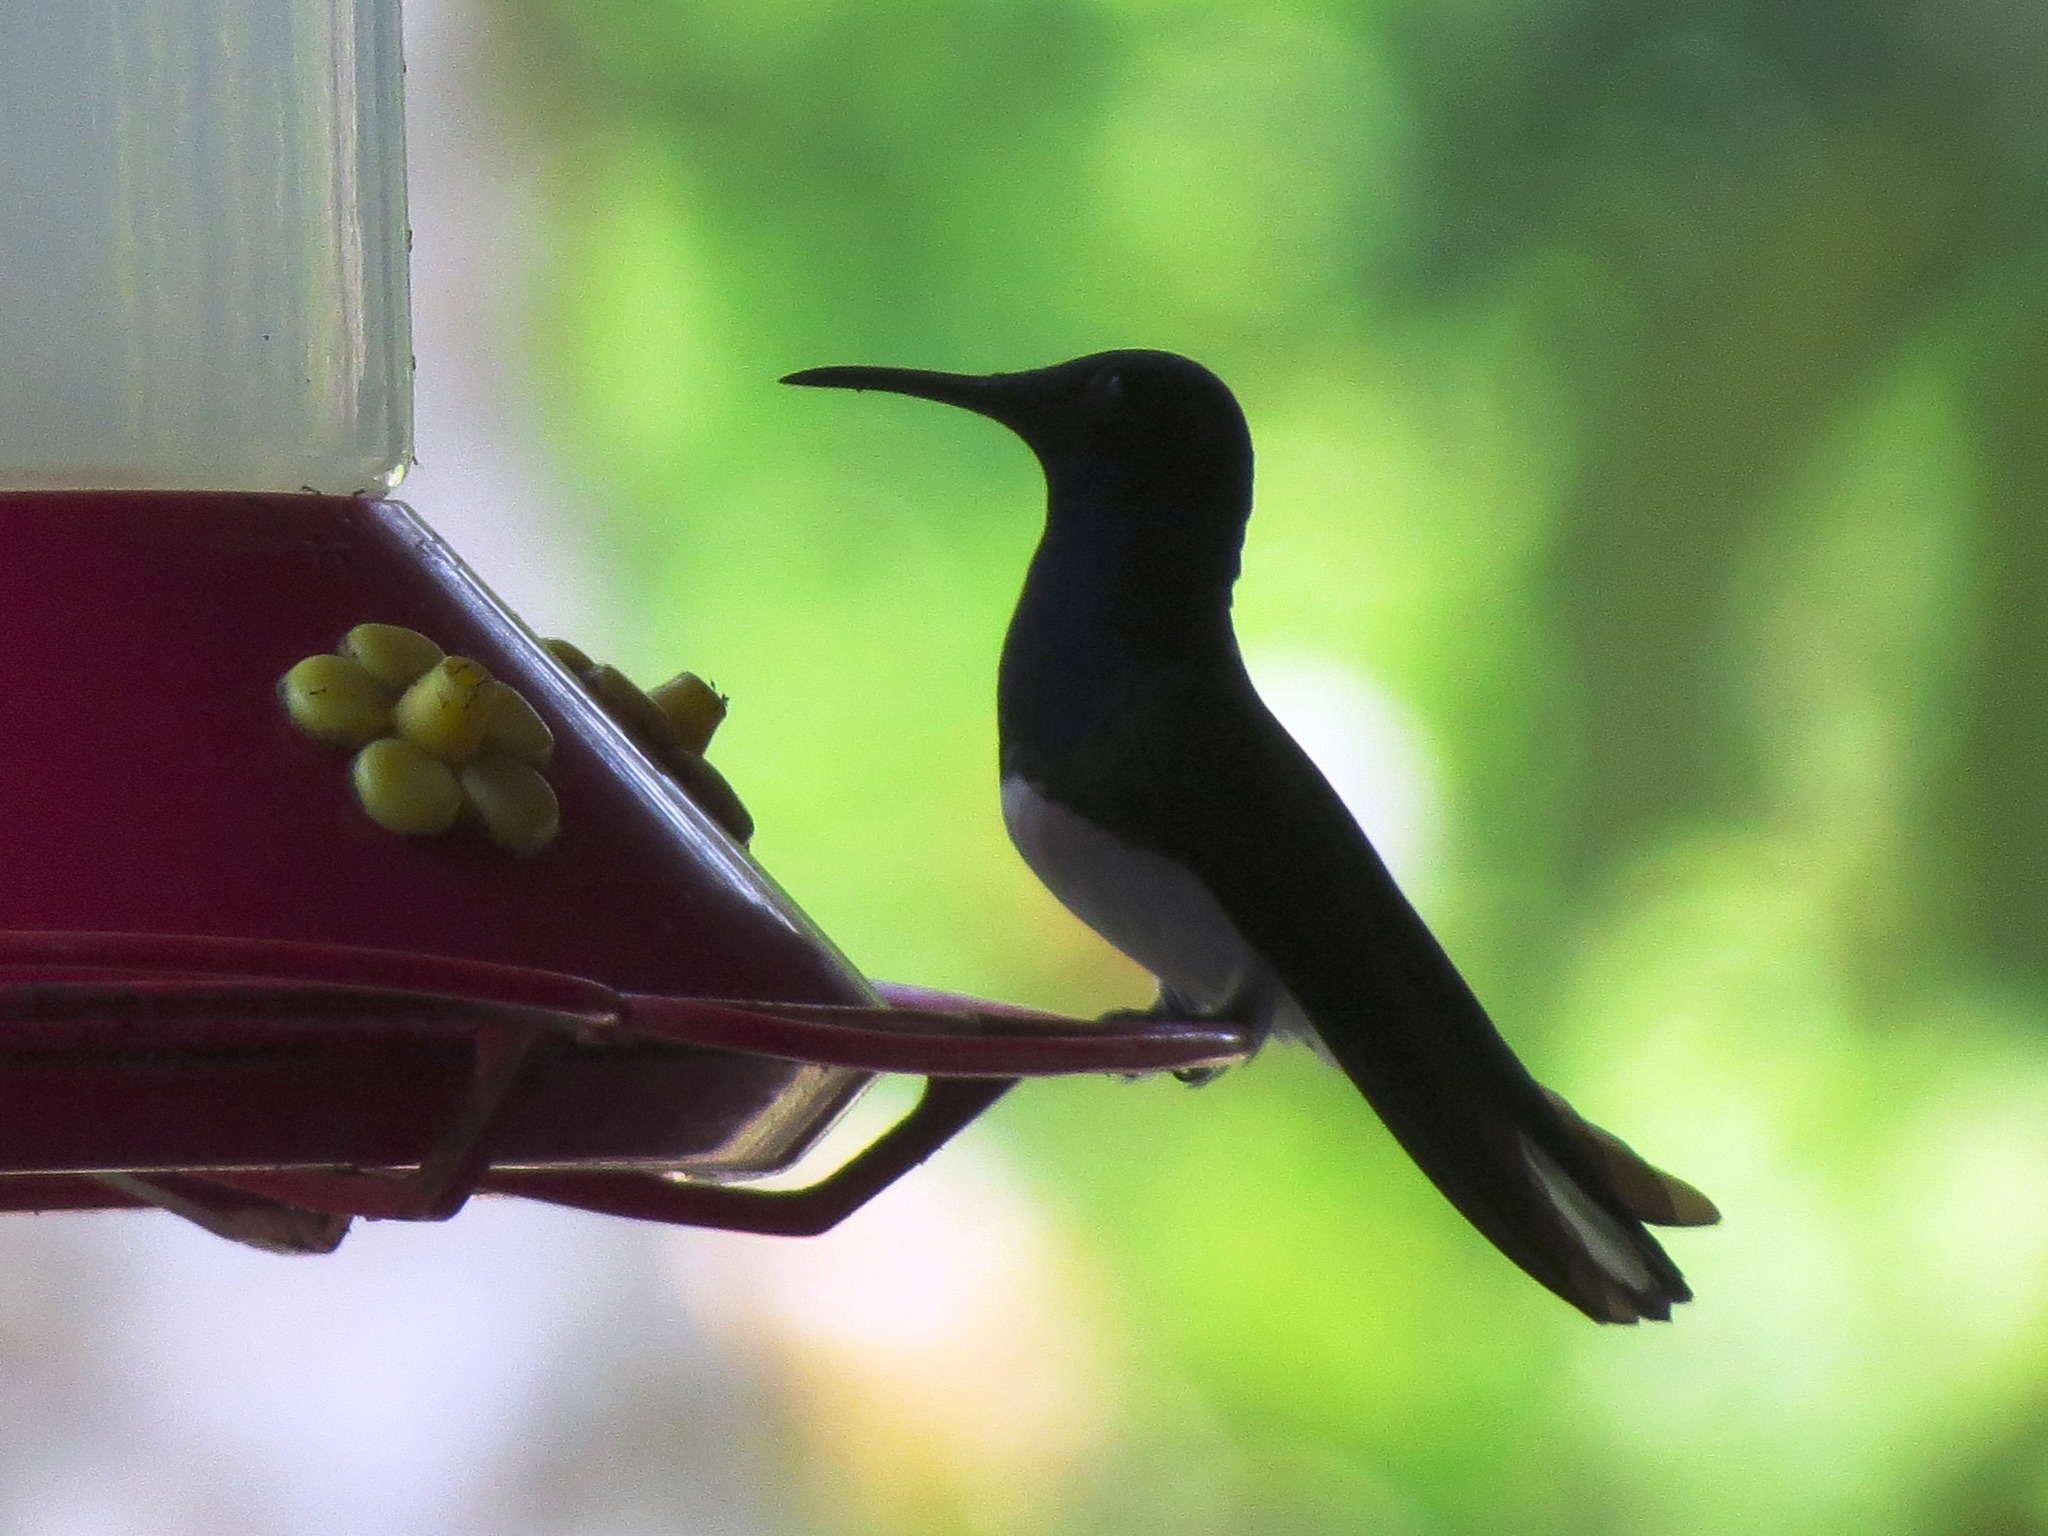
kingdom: Animalia
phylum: Chordata
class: Aves
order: Apodiformes
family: Trochilidae
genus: Florisuga
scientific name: Florisuga mellivora
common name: White-necked jacobin
